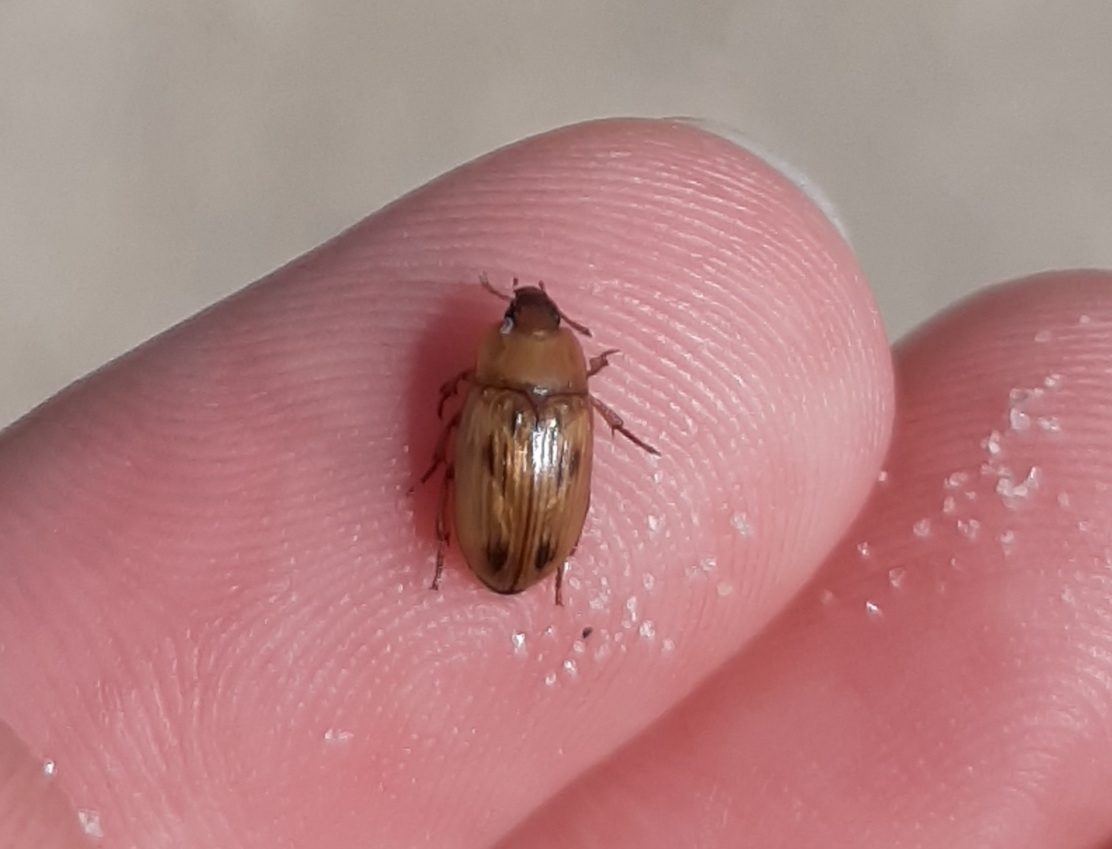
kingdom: Animalia
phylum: Arthropoda
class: Insecta
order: Coleoptera
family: Tenebrionidae
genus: Phaleria
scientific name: Phaleria testacea
